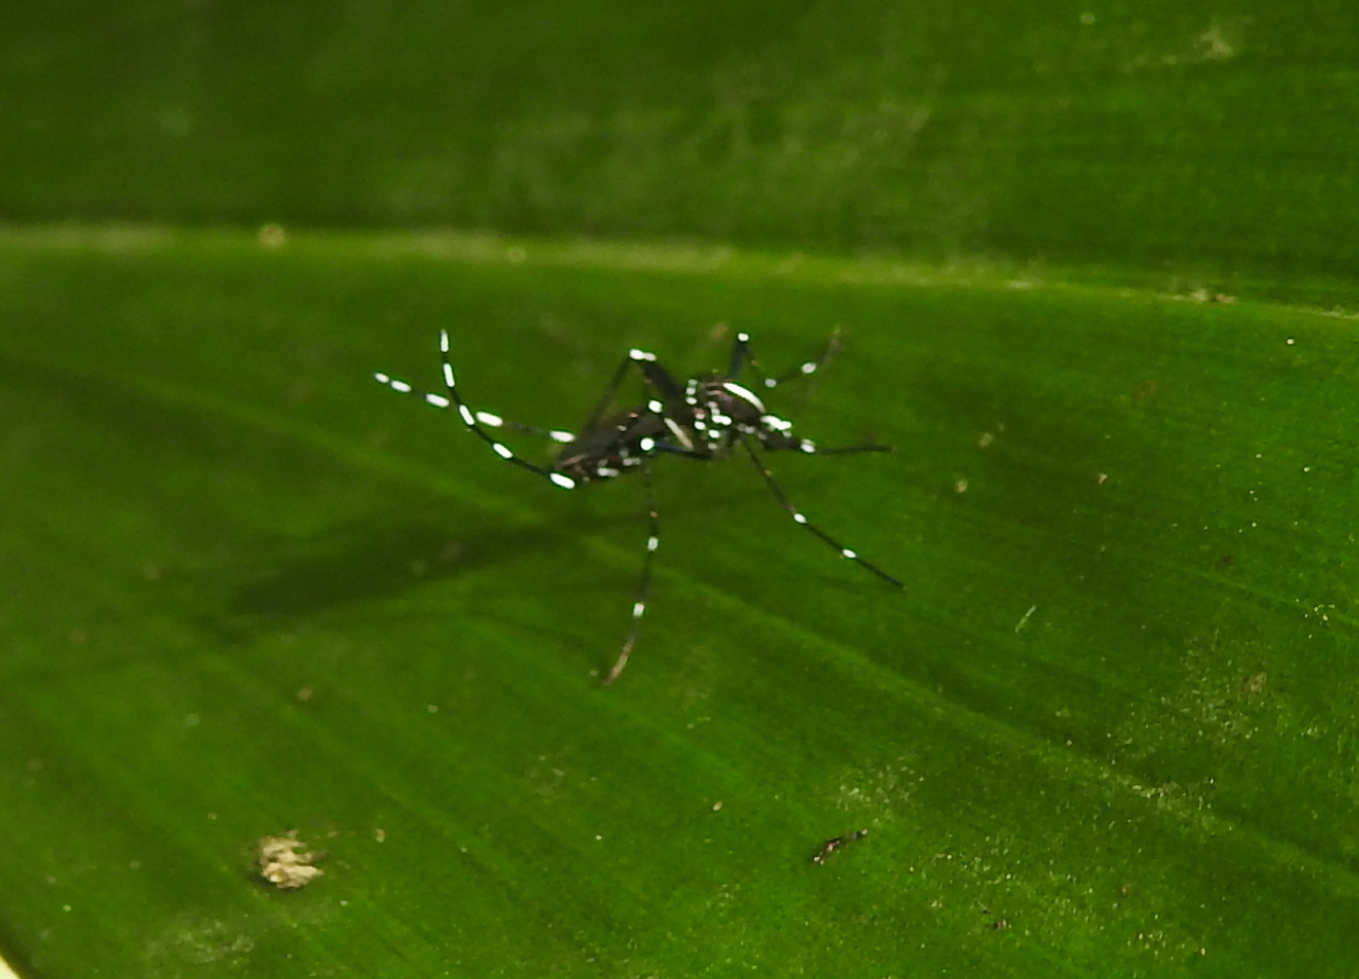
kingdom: Animalia
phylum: Arthropoda
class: Insecta
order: Diptera
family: Culicidae
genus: Aedes
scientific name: Aedes albopictus
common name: Tiger mosquito
